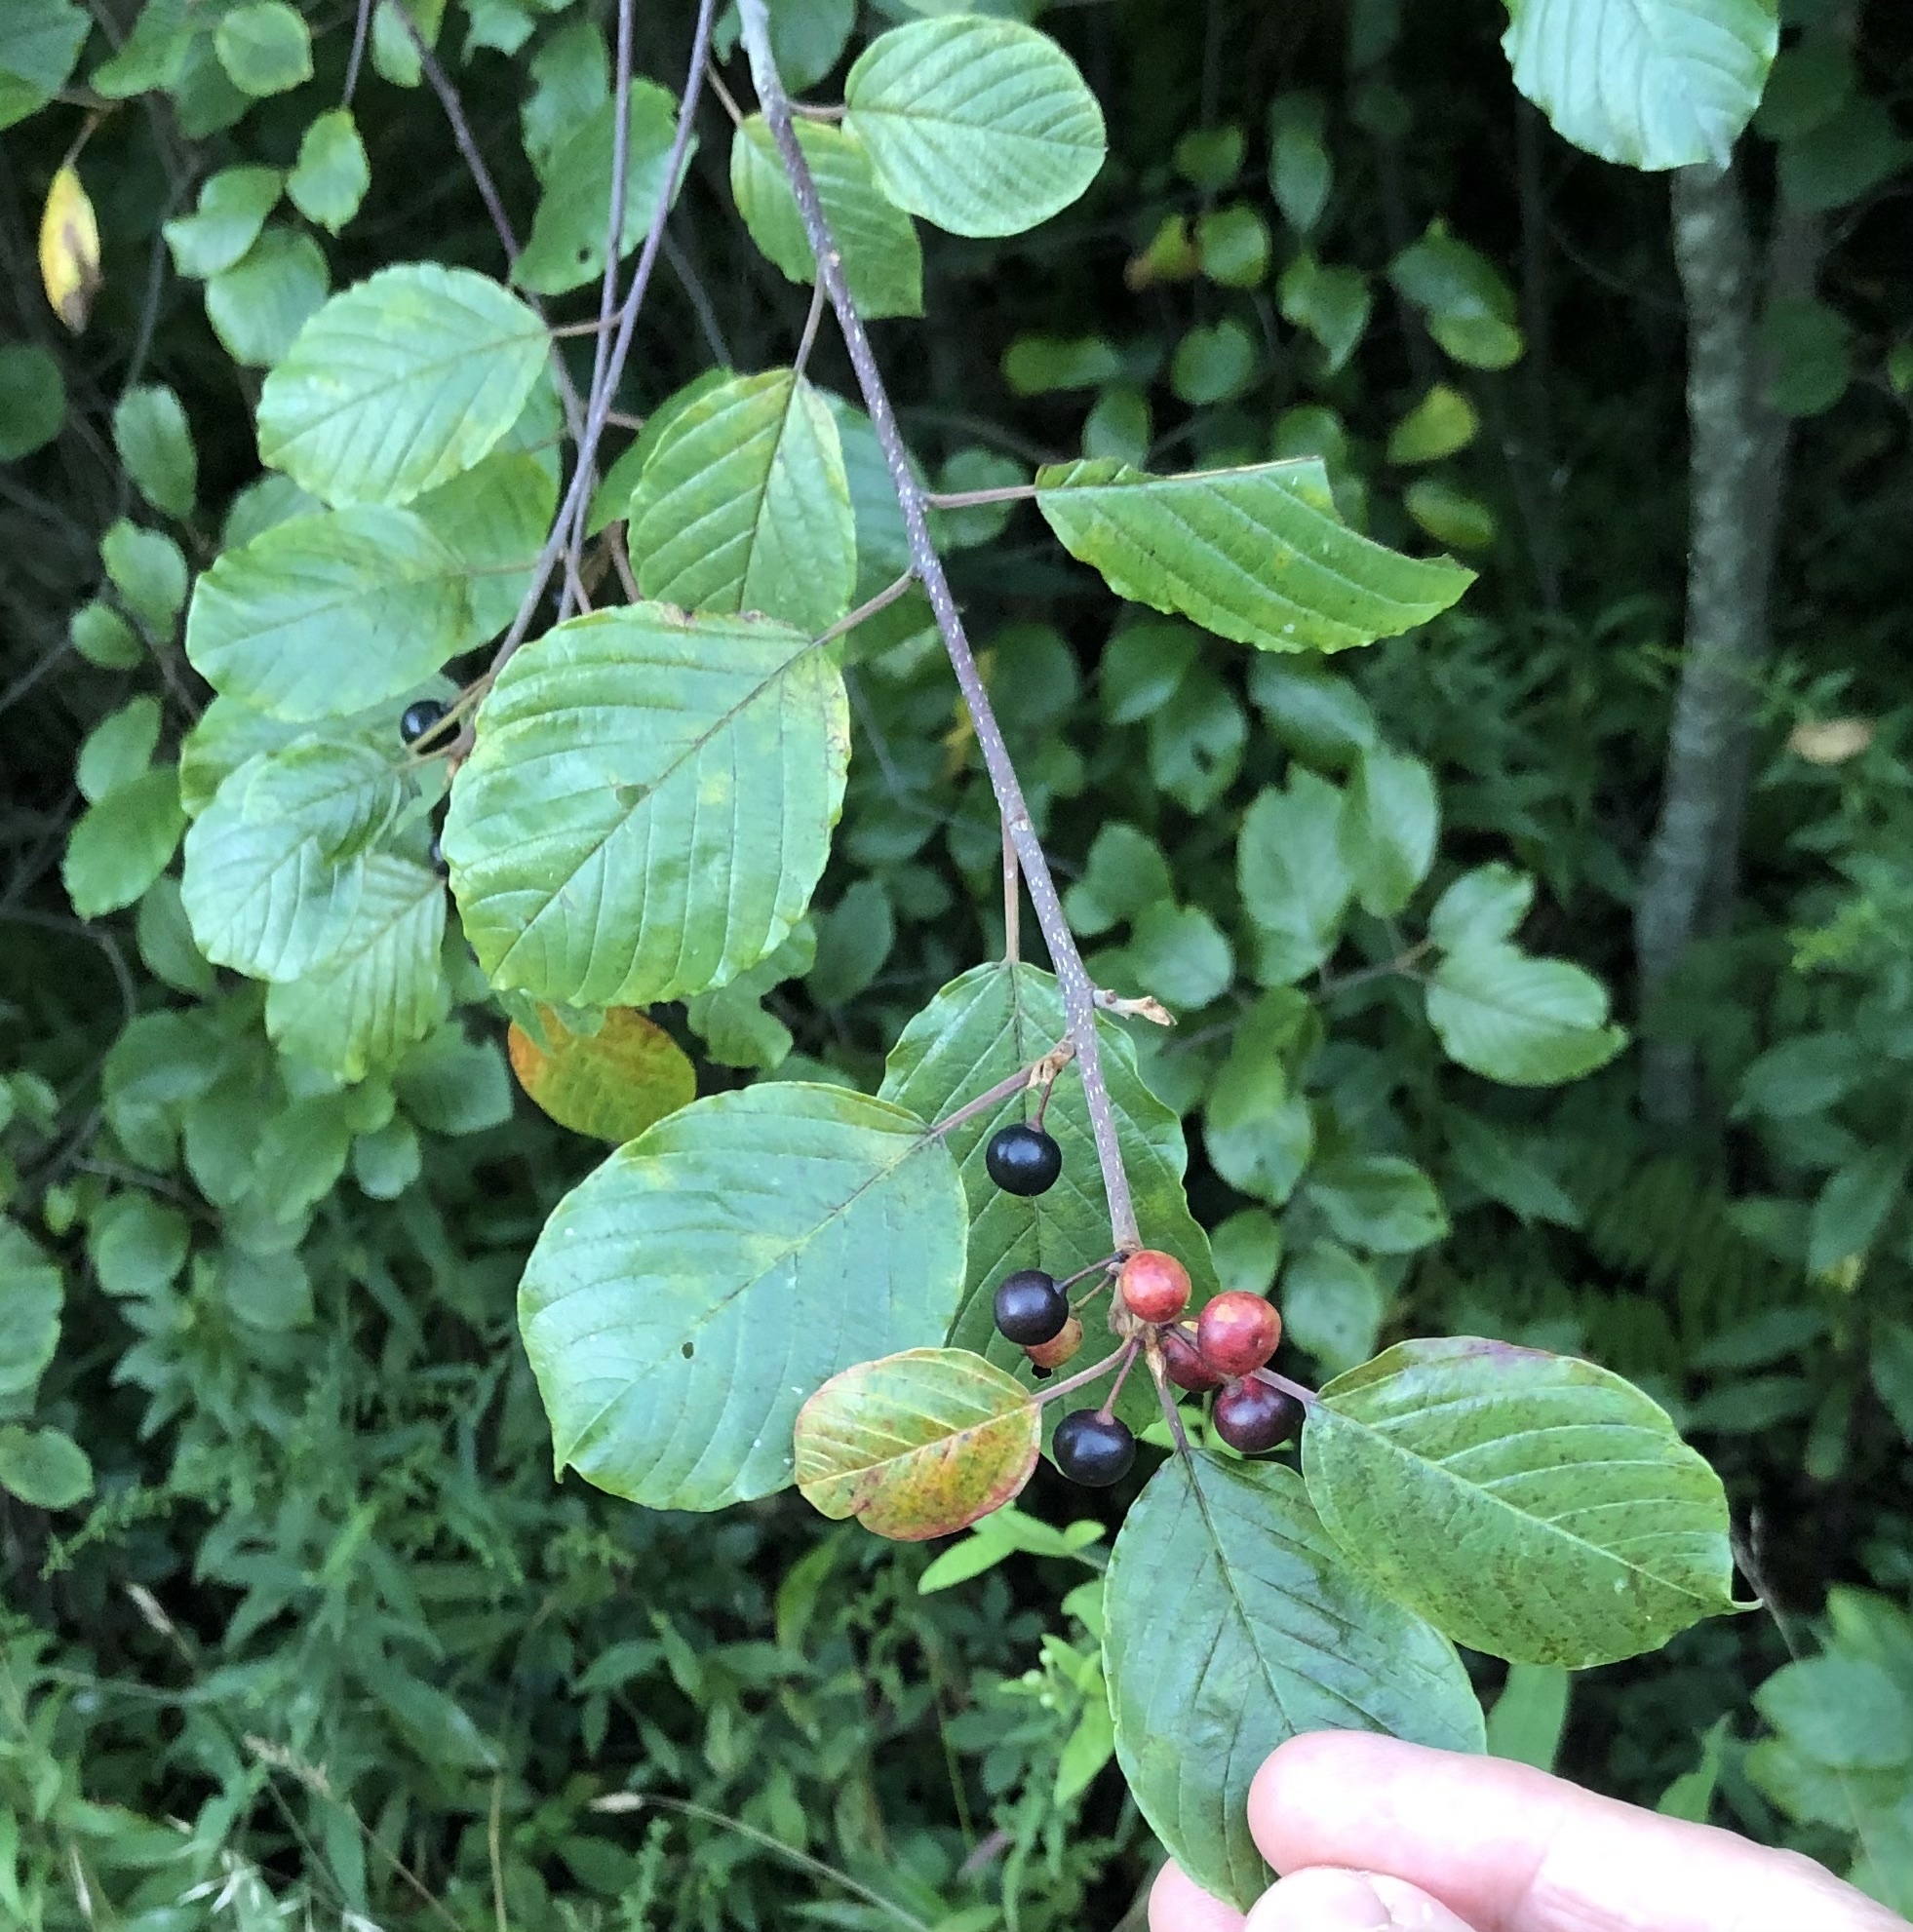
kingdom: Plantae
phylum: Tracheophyta
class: Magnoliopsida
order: Rosales
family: Rhamnaceae
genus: Frangula
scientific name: Frangula alnus
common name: Alder buckthorn
